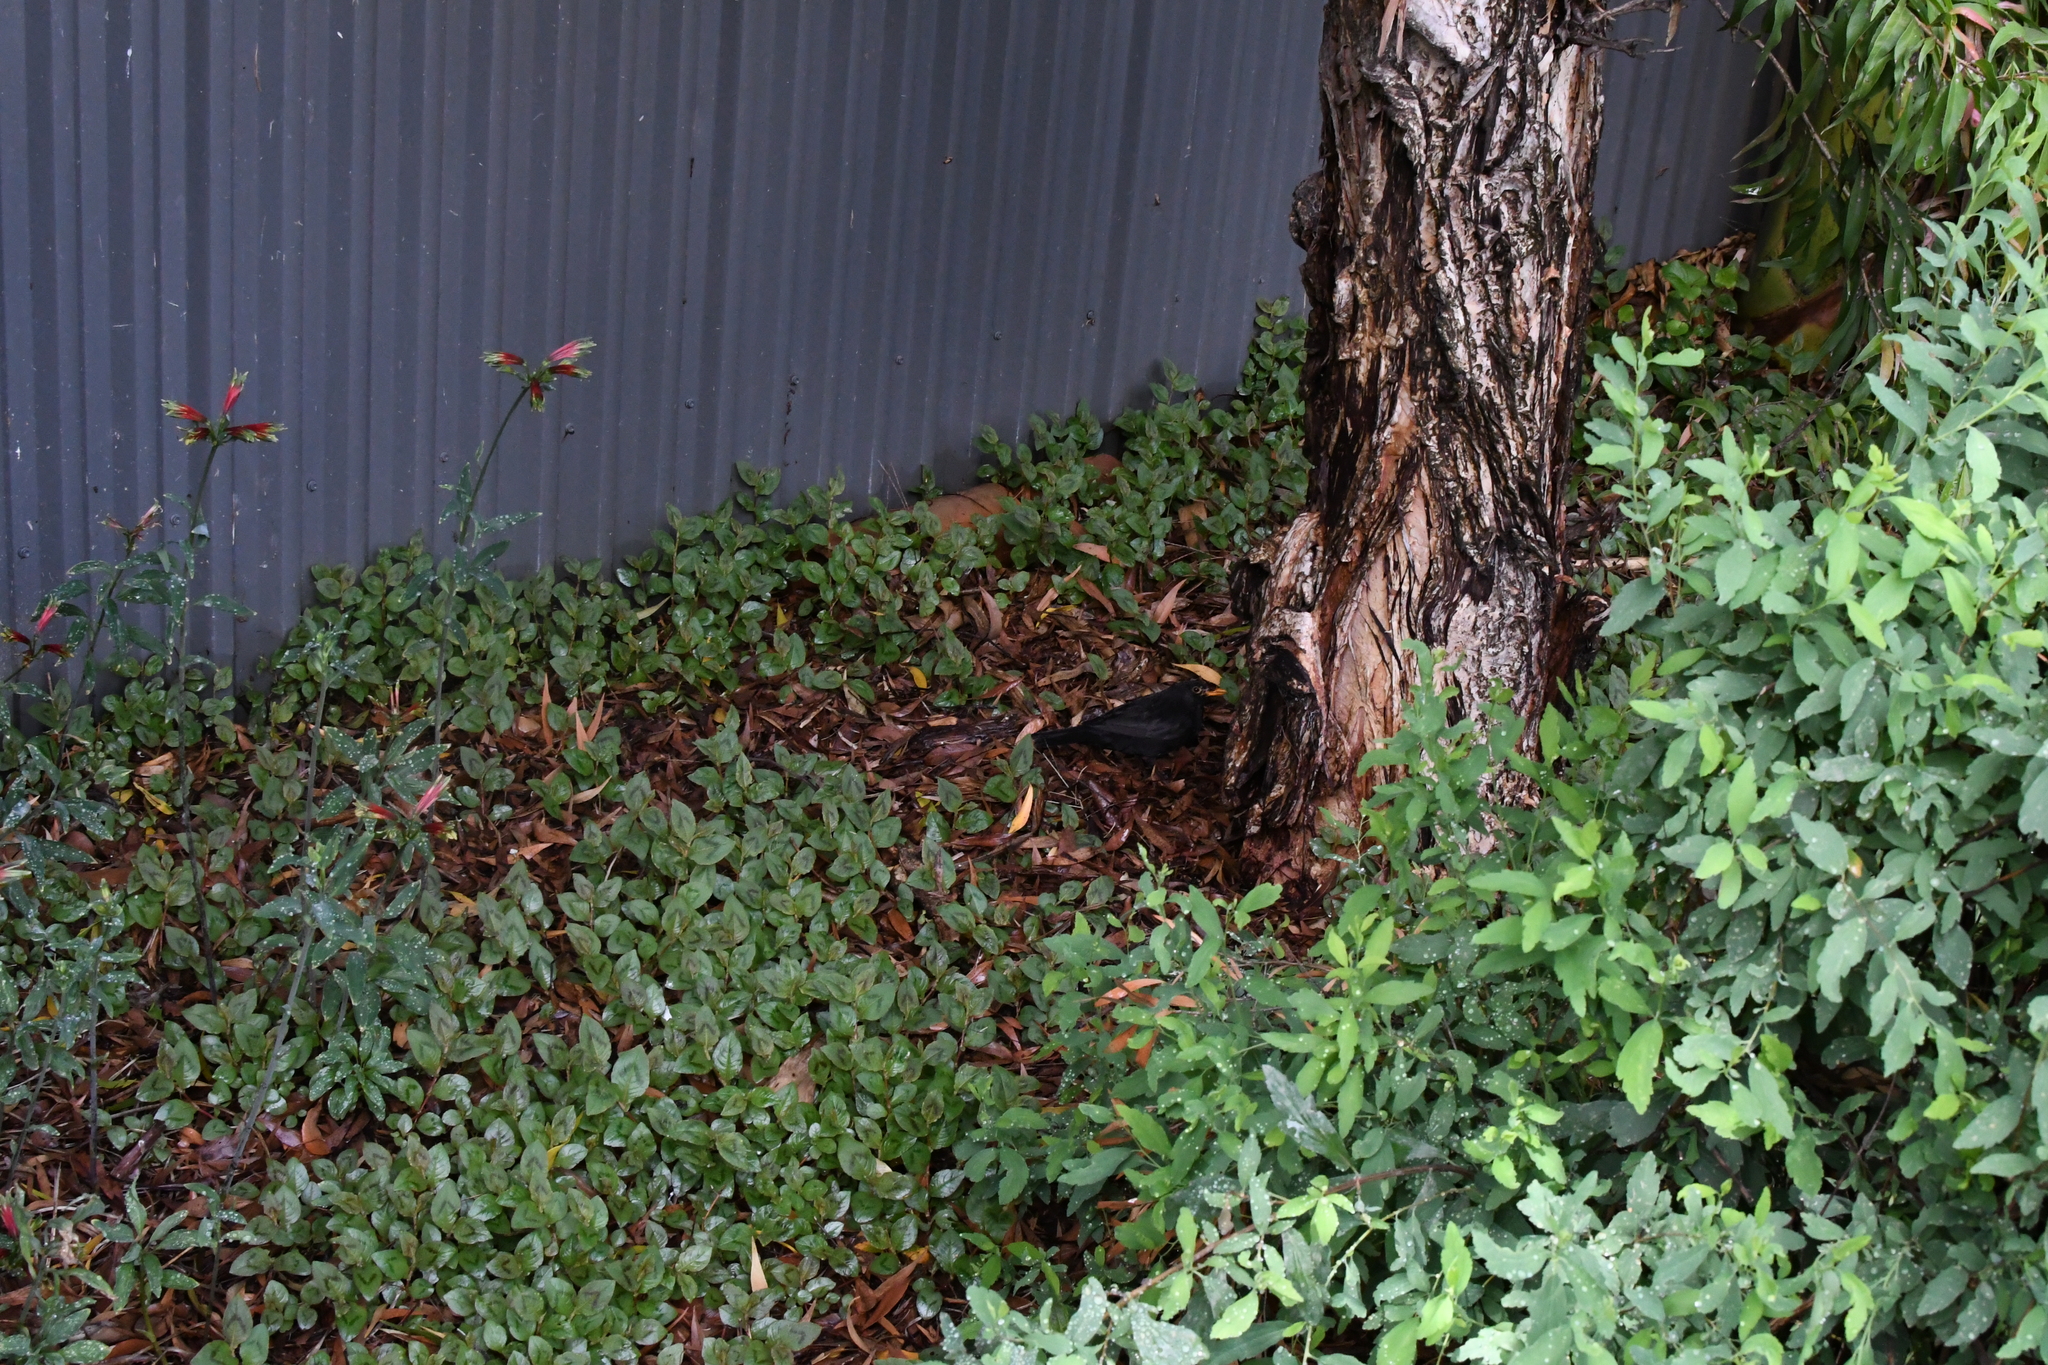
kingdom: Animalia
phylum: Chordata
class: Aves
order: Passeriformes
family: Turdidae
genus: Turdus
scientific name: Turdus merula
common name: Common blackbird
